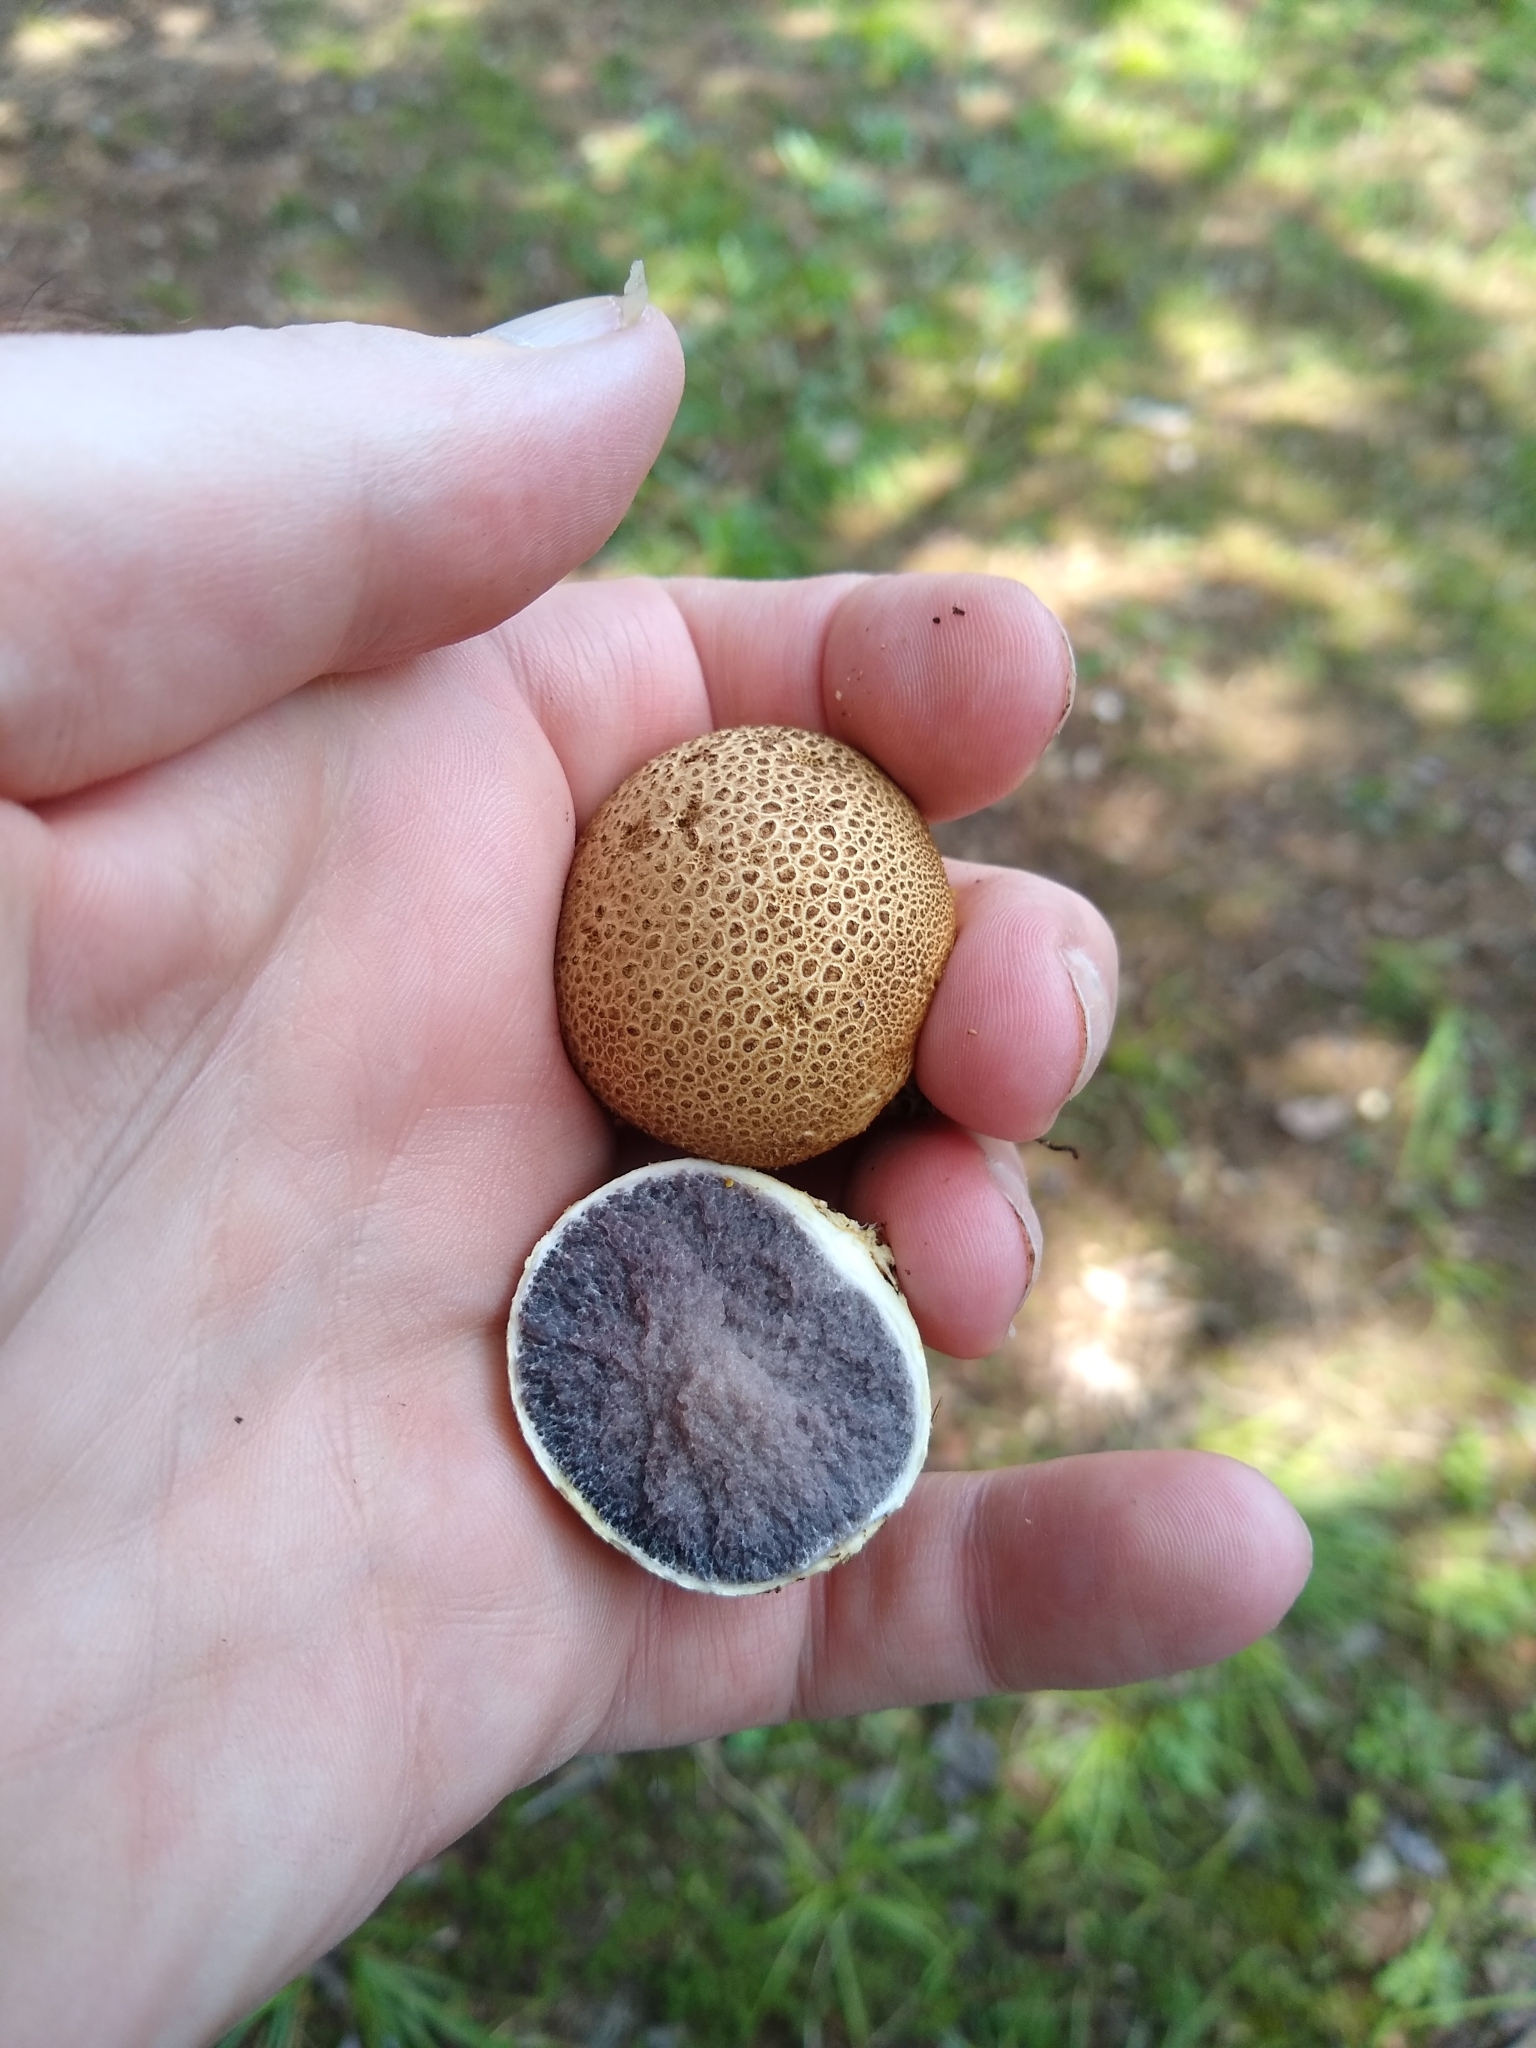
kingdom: Fungi
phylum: Basidiomycota
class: Agaricomycetes
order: Boletales
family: Sclerodermataceae
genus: Scleroderma
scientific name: Scleroderma citrinum
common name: Common earthball
